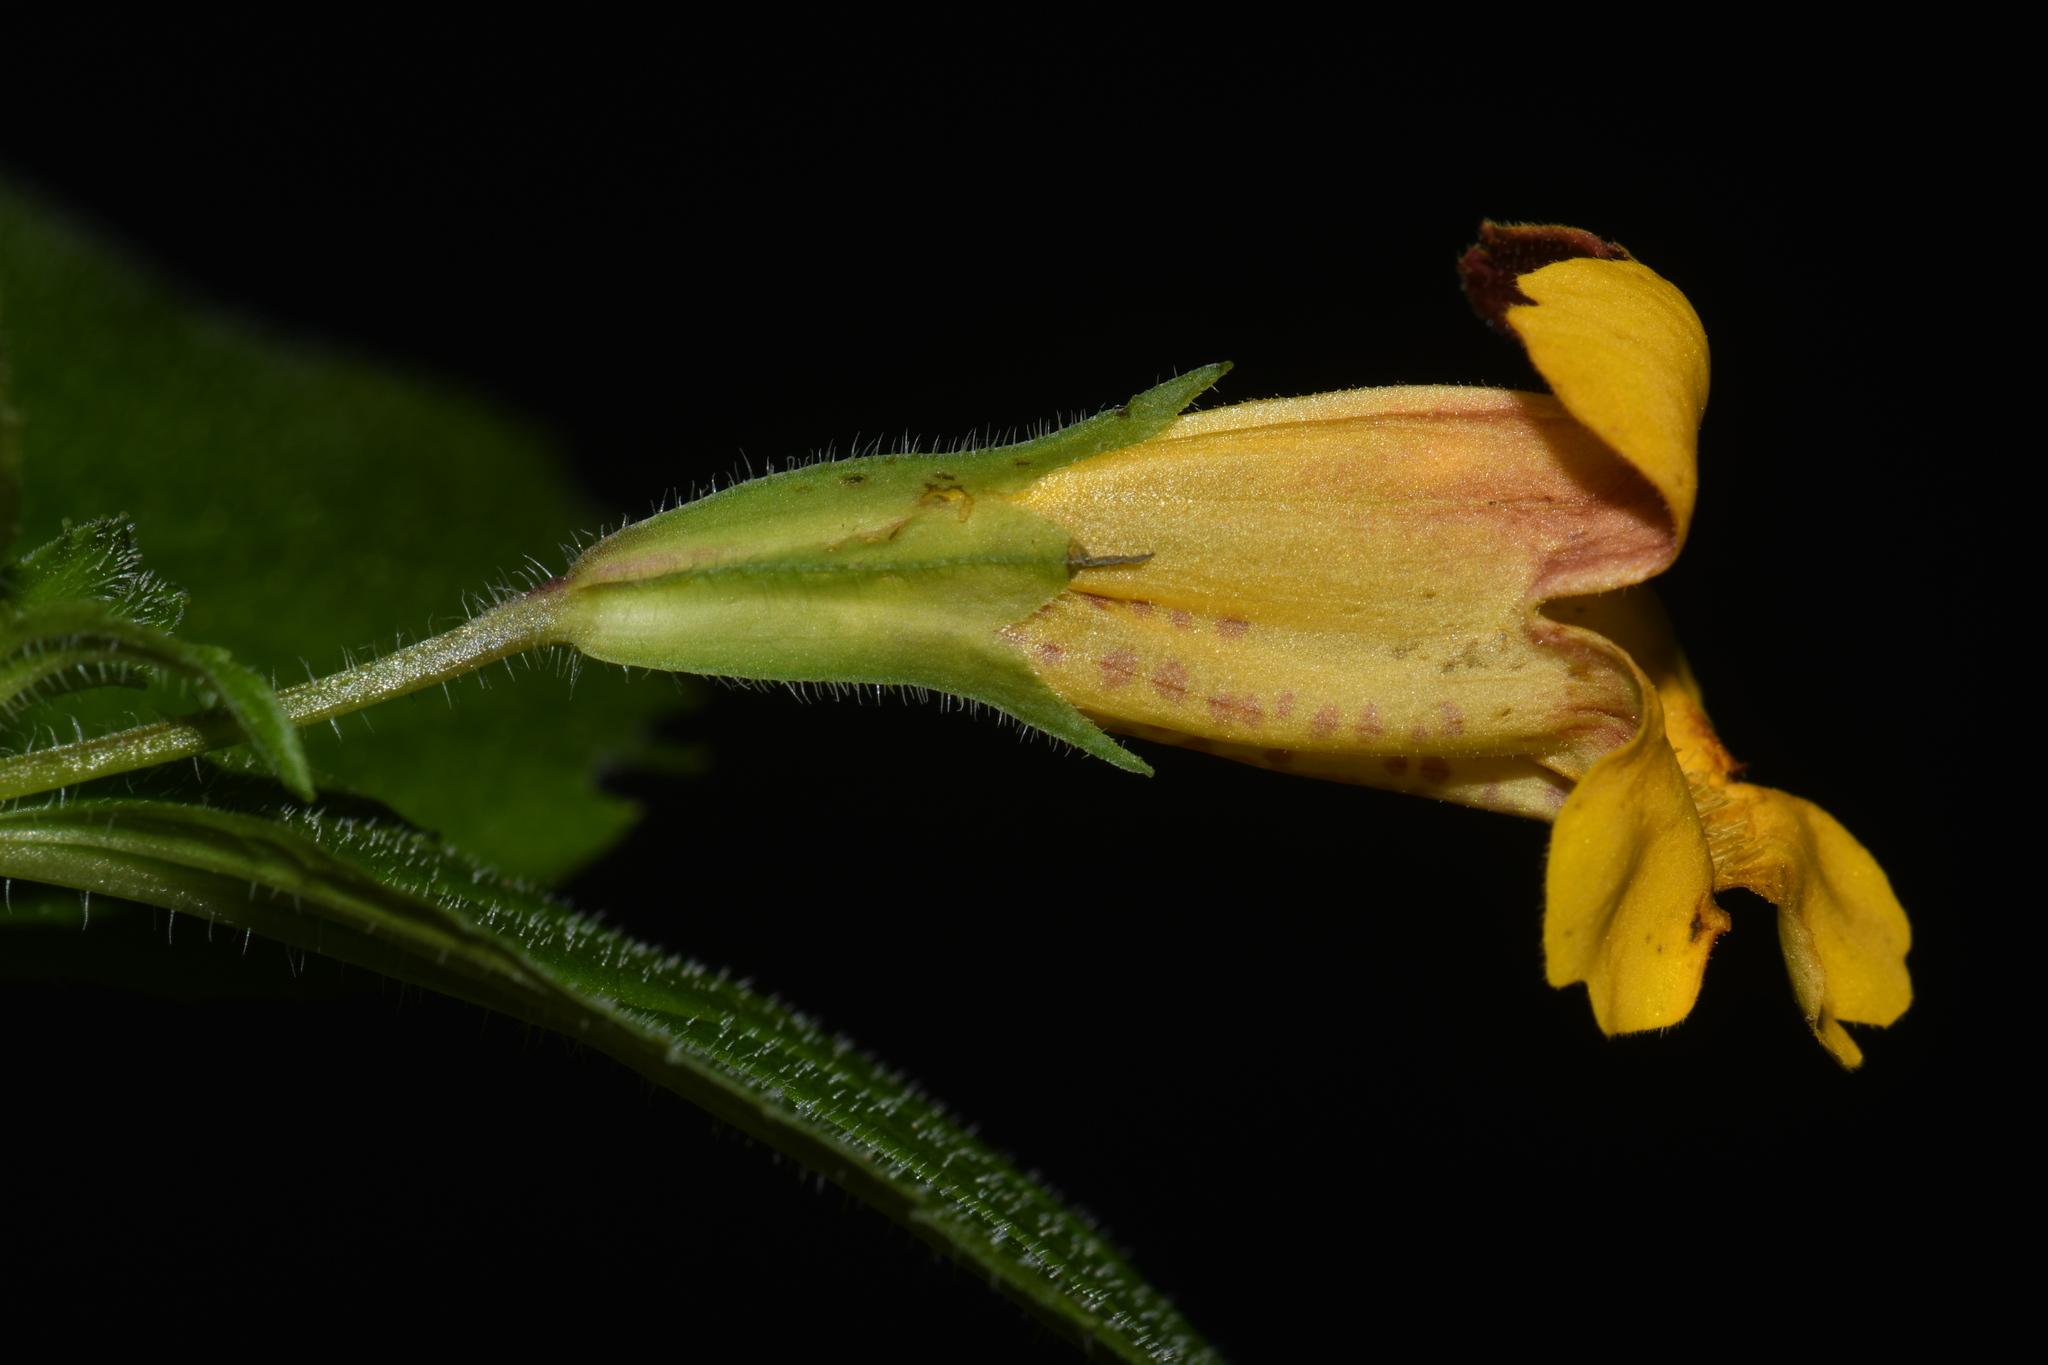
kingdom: Plantae
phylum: Tracheophyta
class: Magnoliopsida
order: Lamiales
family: Phrymaceae
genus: Erythranthe
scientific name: Erythranthe dentata
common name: Coastal monkeyflower
